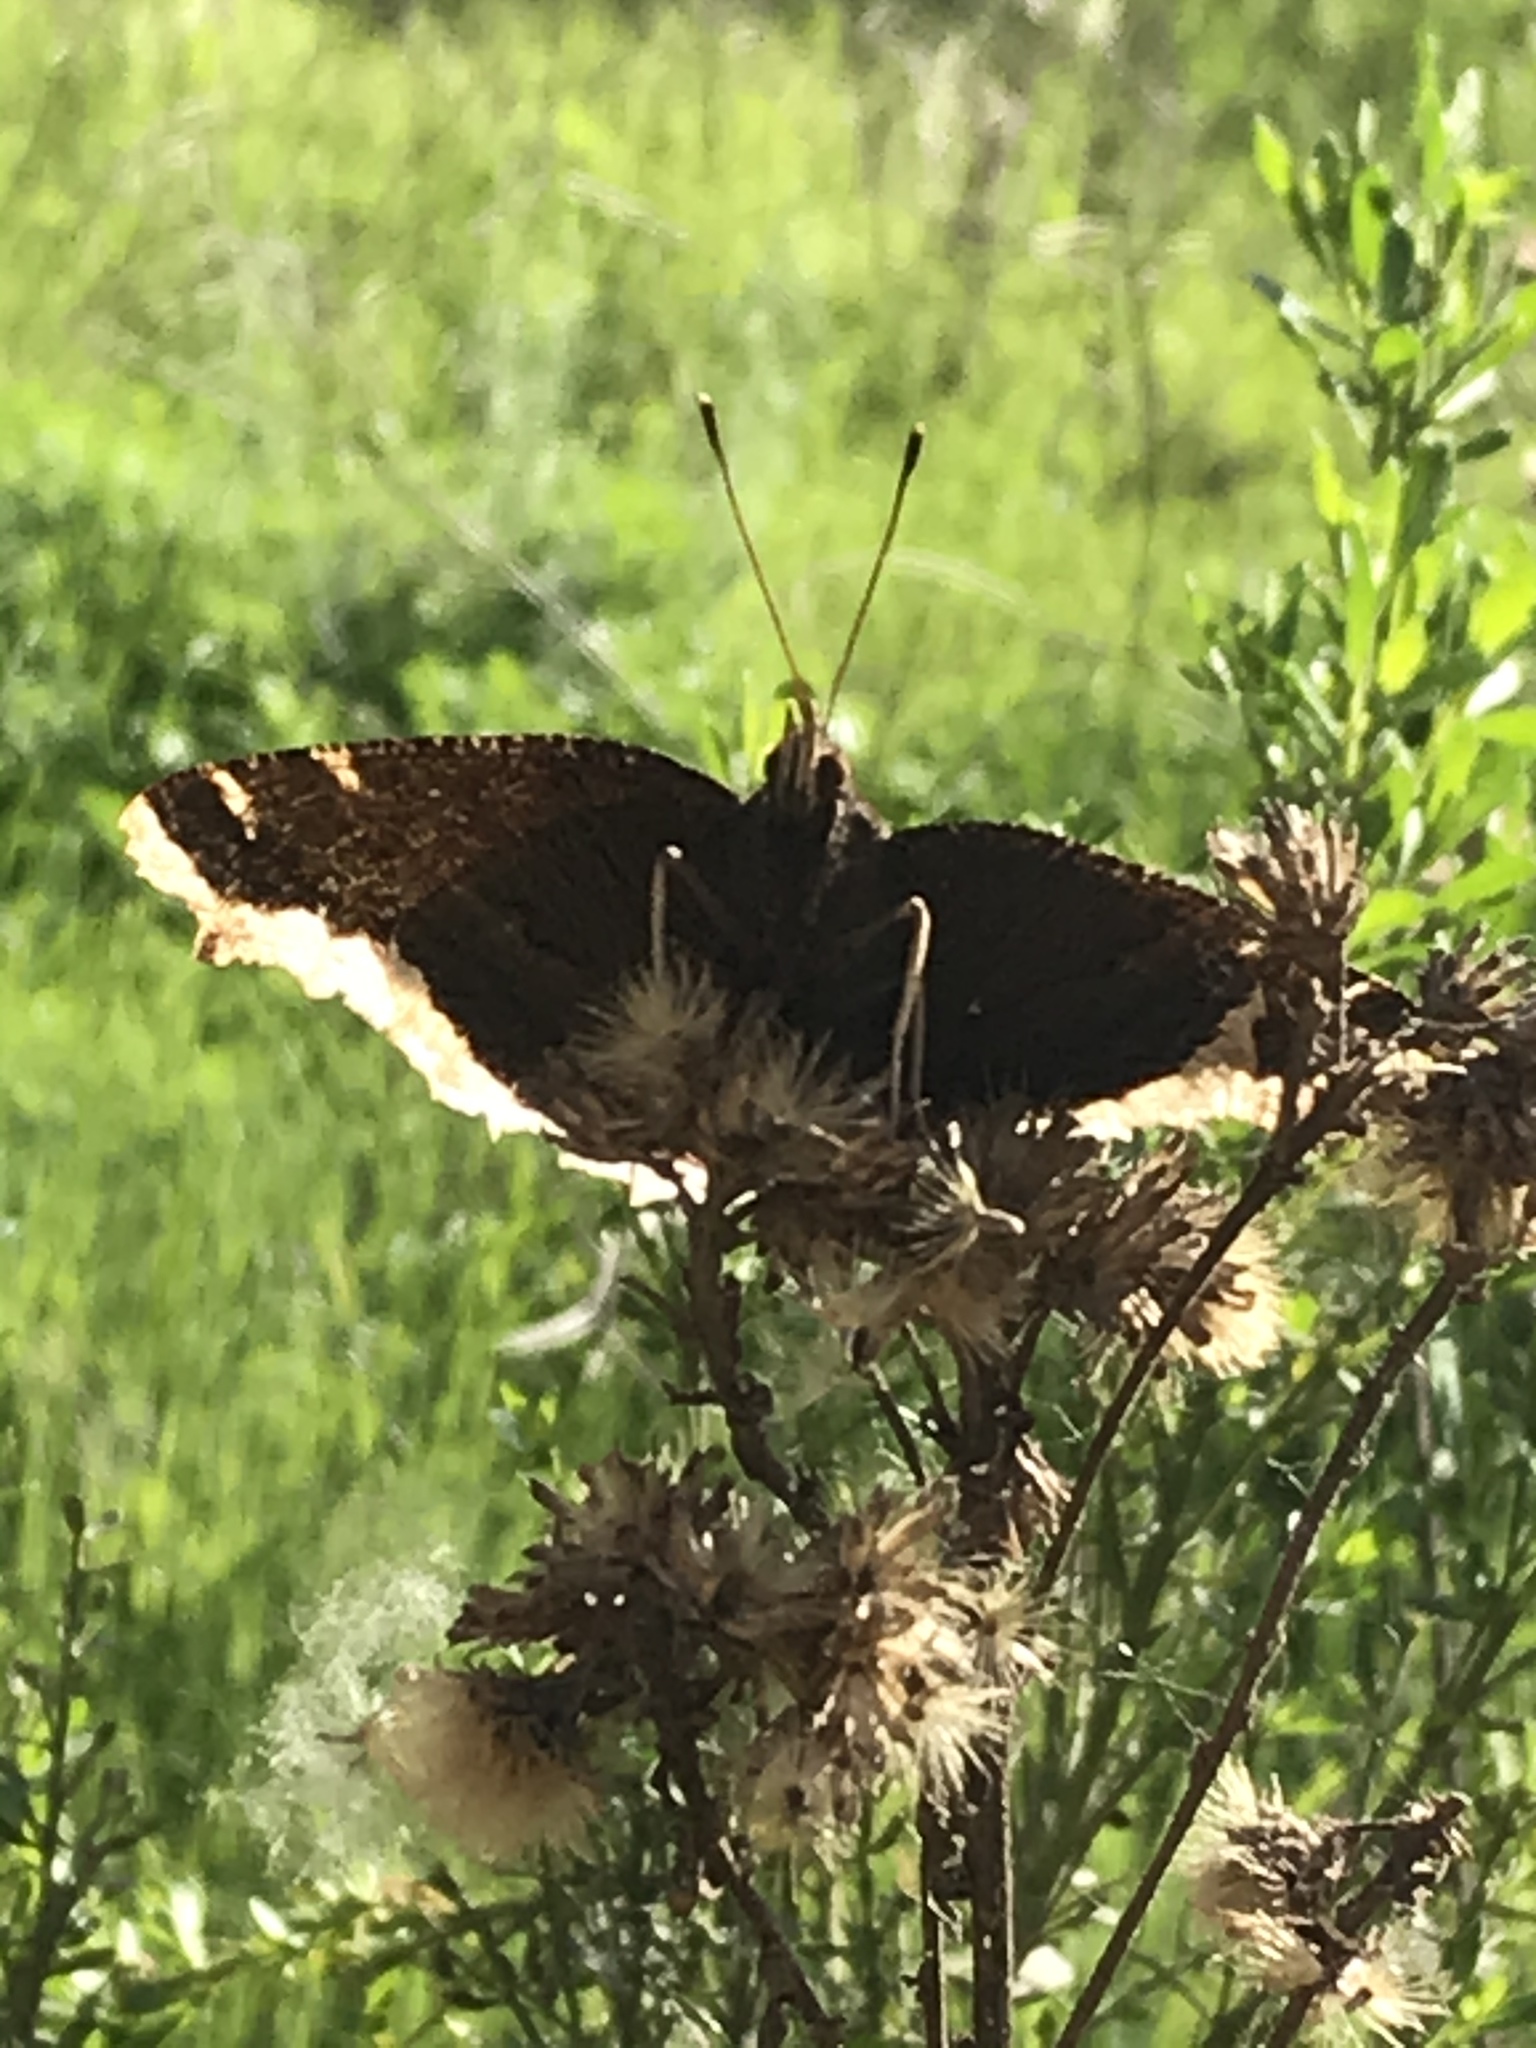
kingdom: Animalia
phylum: Arthropoda
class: Insecta
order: Lepidoptera
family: Nymphalidae
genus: Nymphalis
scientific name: Nymphalis antiopa
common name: Camberwell beauty
